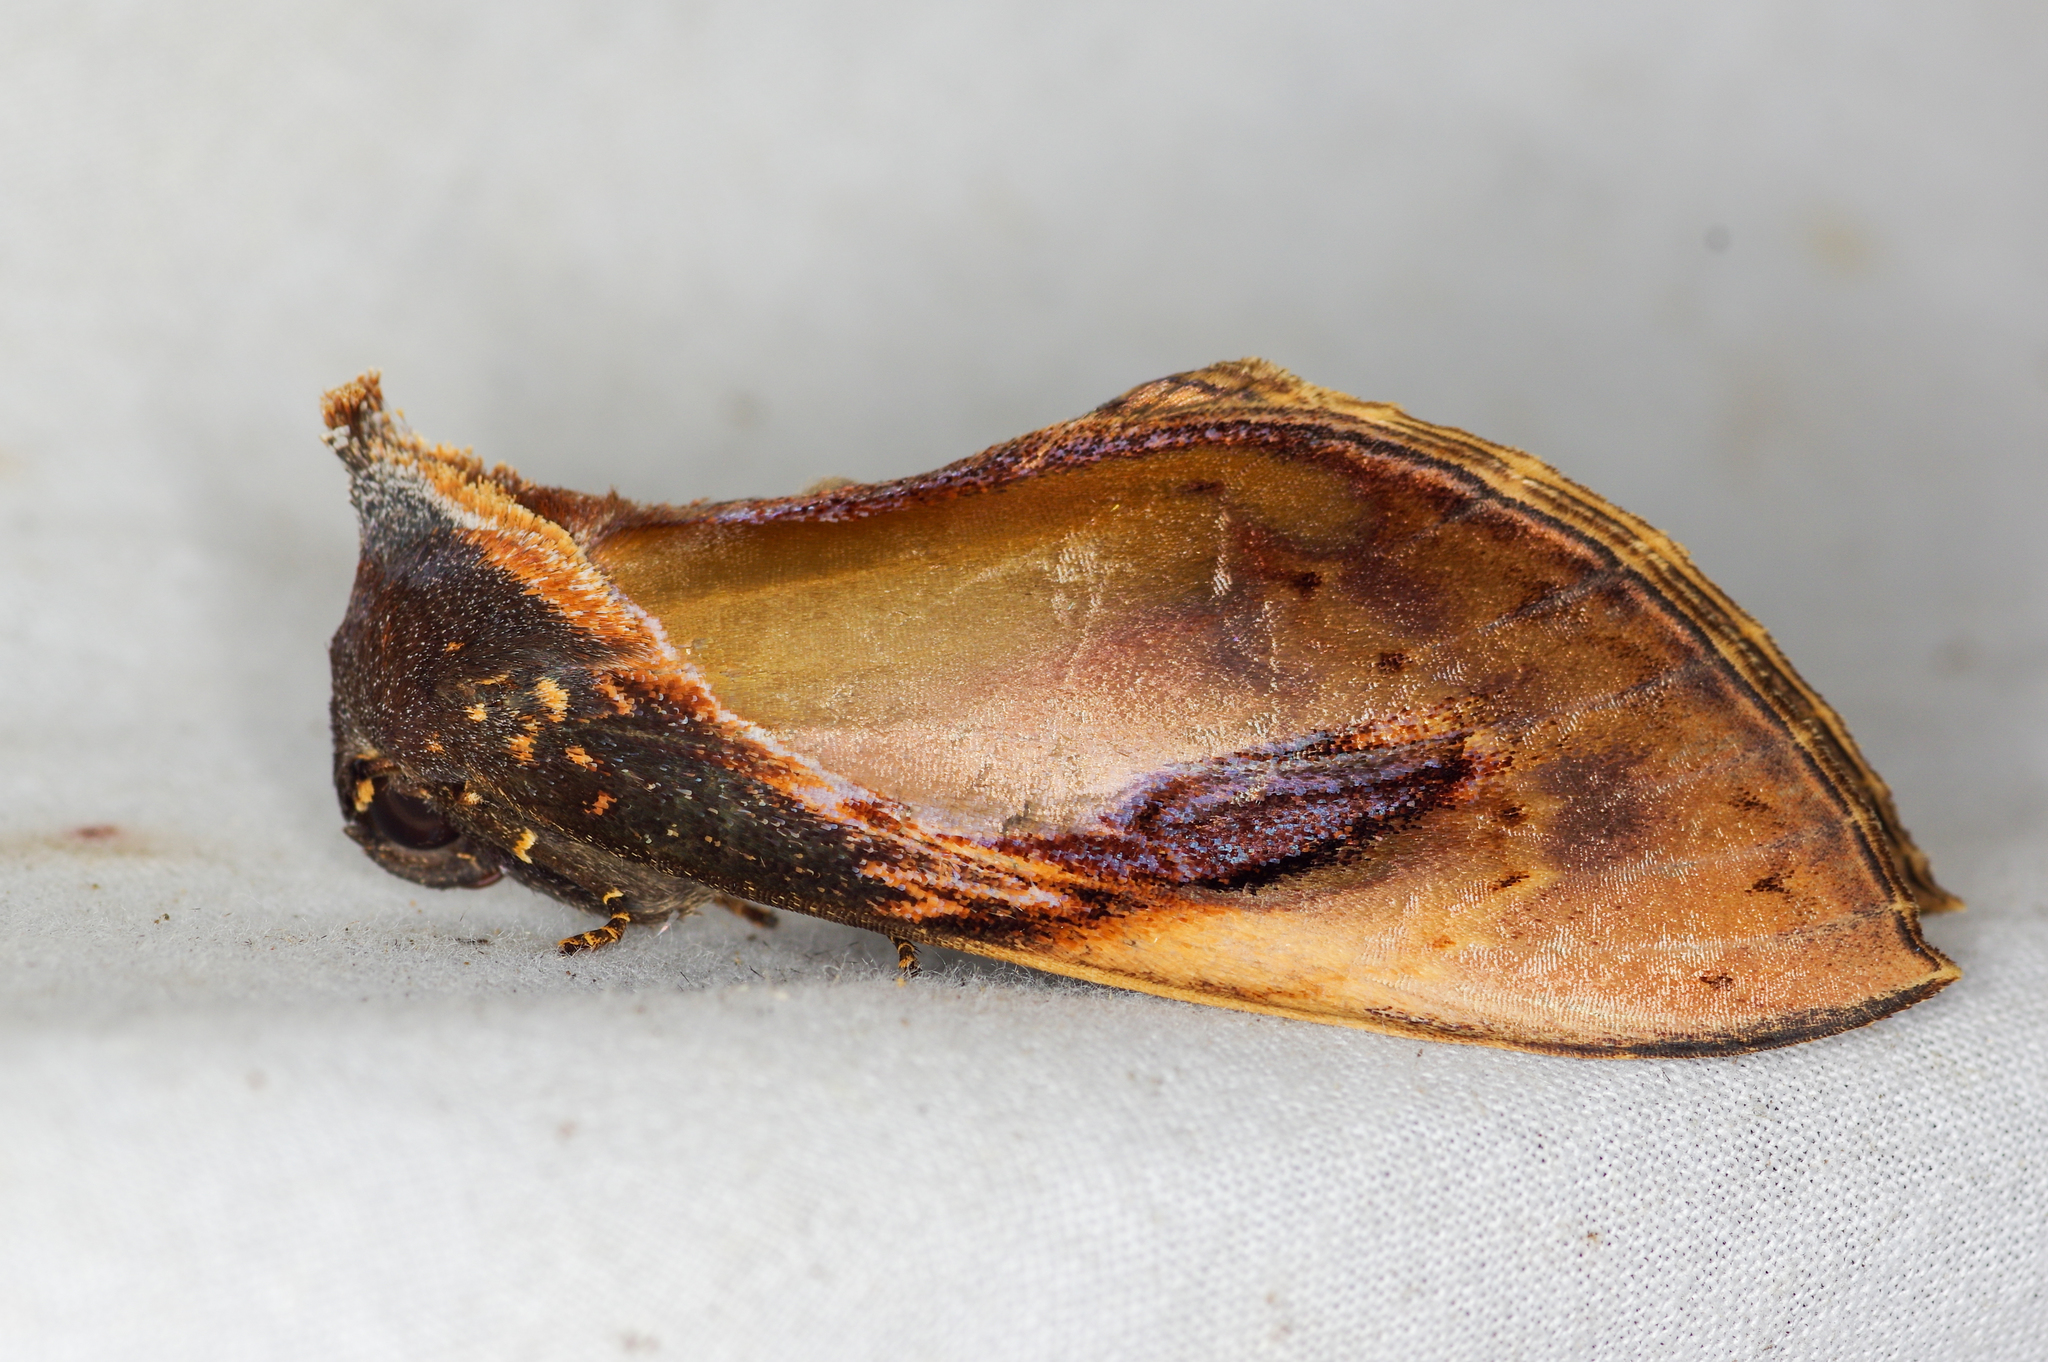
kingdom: Animalia
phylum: Arthropoda
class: Insecta
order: Lepidoptera
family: Notodontidae
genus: Crinodes
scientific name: Crinodes bellatrix
